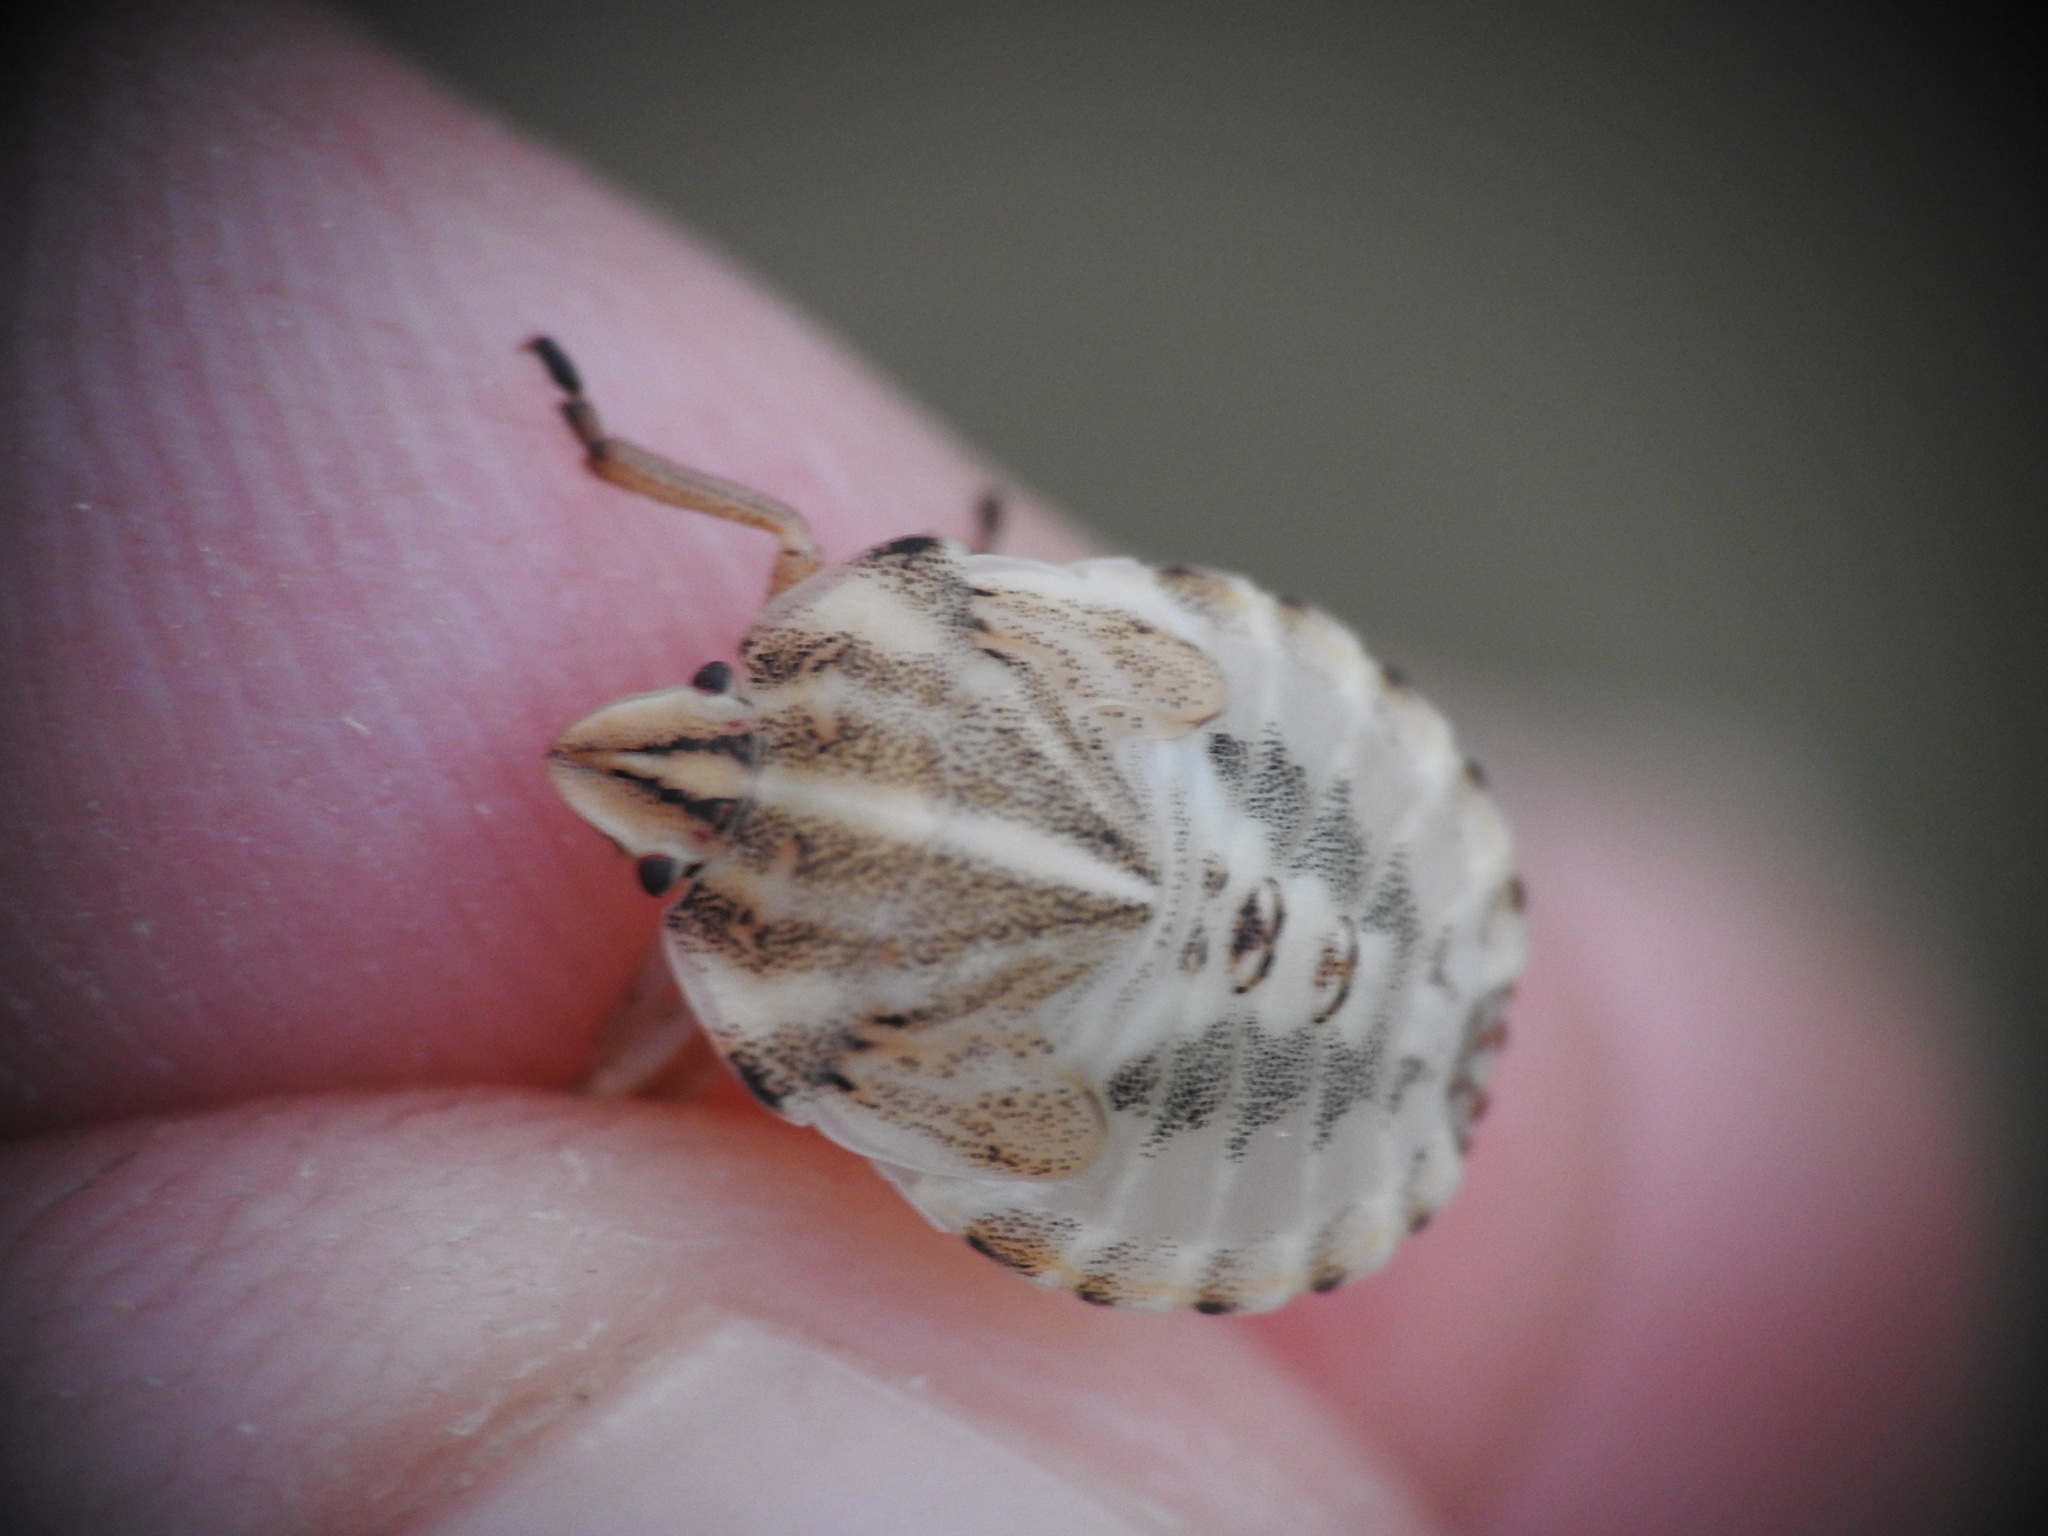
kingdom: Animalia
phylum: Arthropoda
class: Insecta
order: Hemiptera
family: Pentatomidae
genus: Graphosoma
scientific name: Graphosoma semipunctatum
